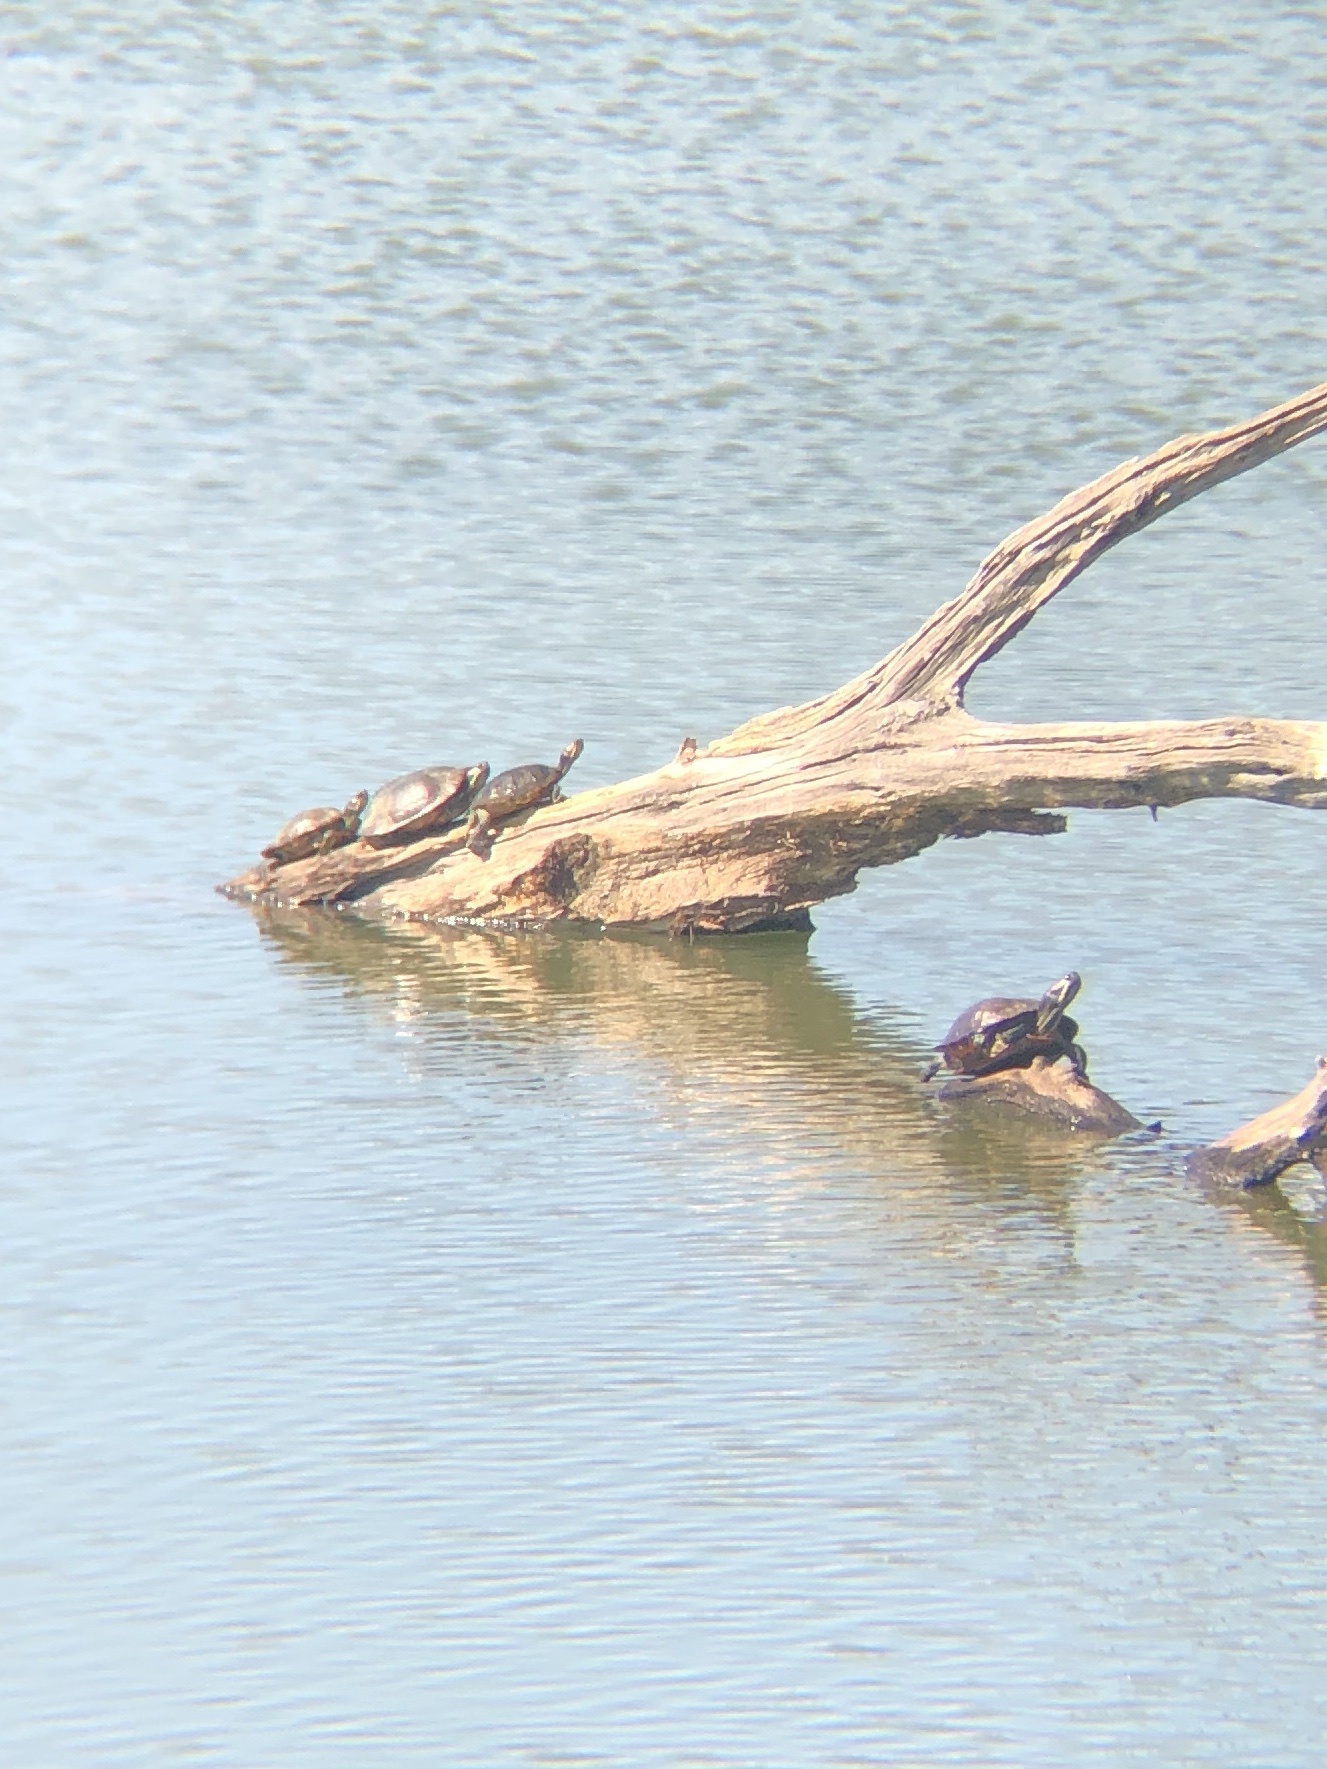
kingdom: Animalia
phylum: Chordata
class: Testudines
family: Emydidae
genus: Trachemys
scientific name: Trachemys scripta
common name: Slider
